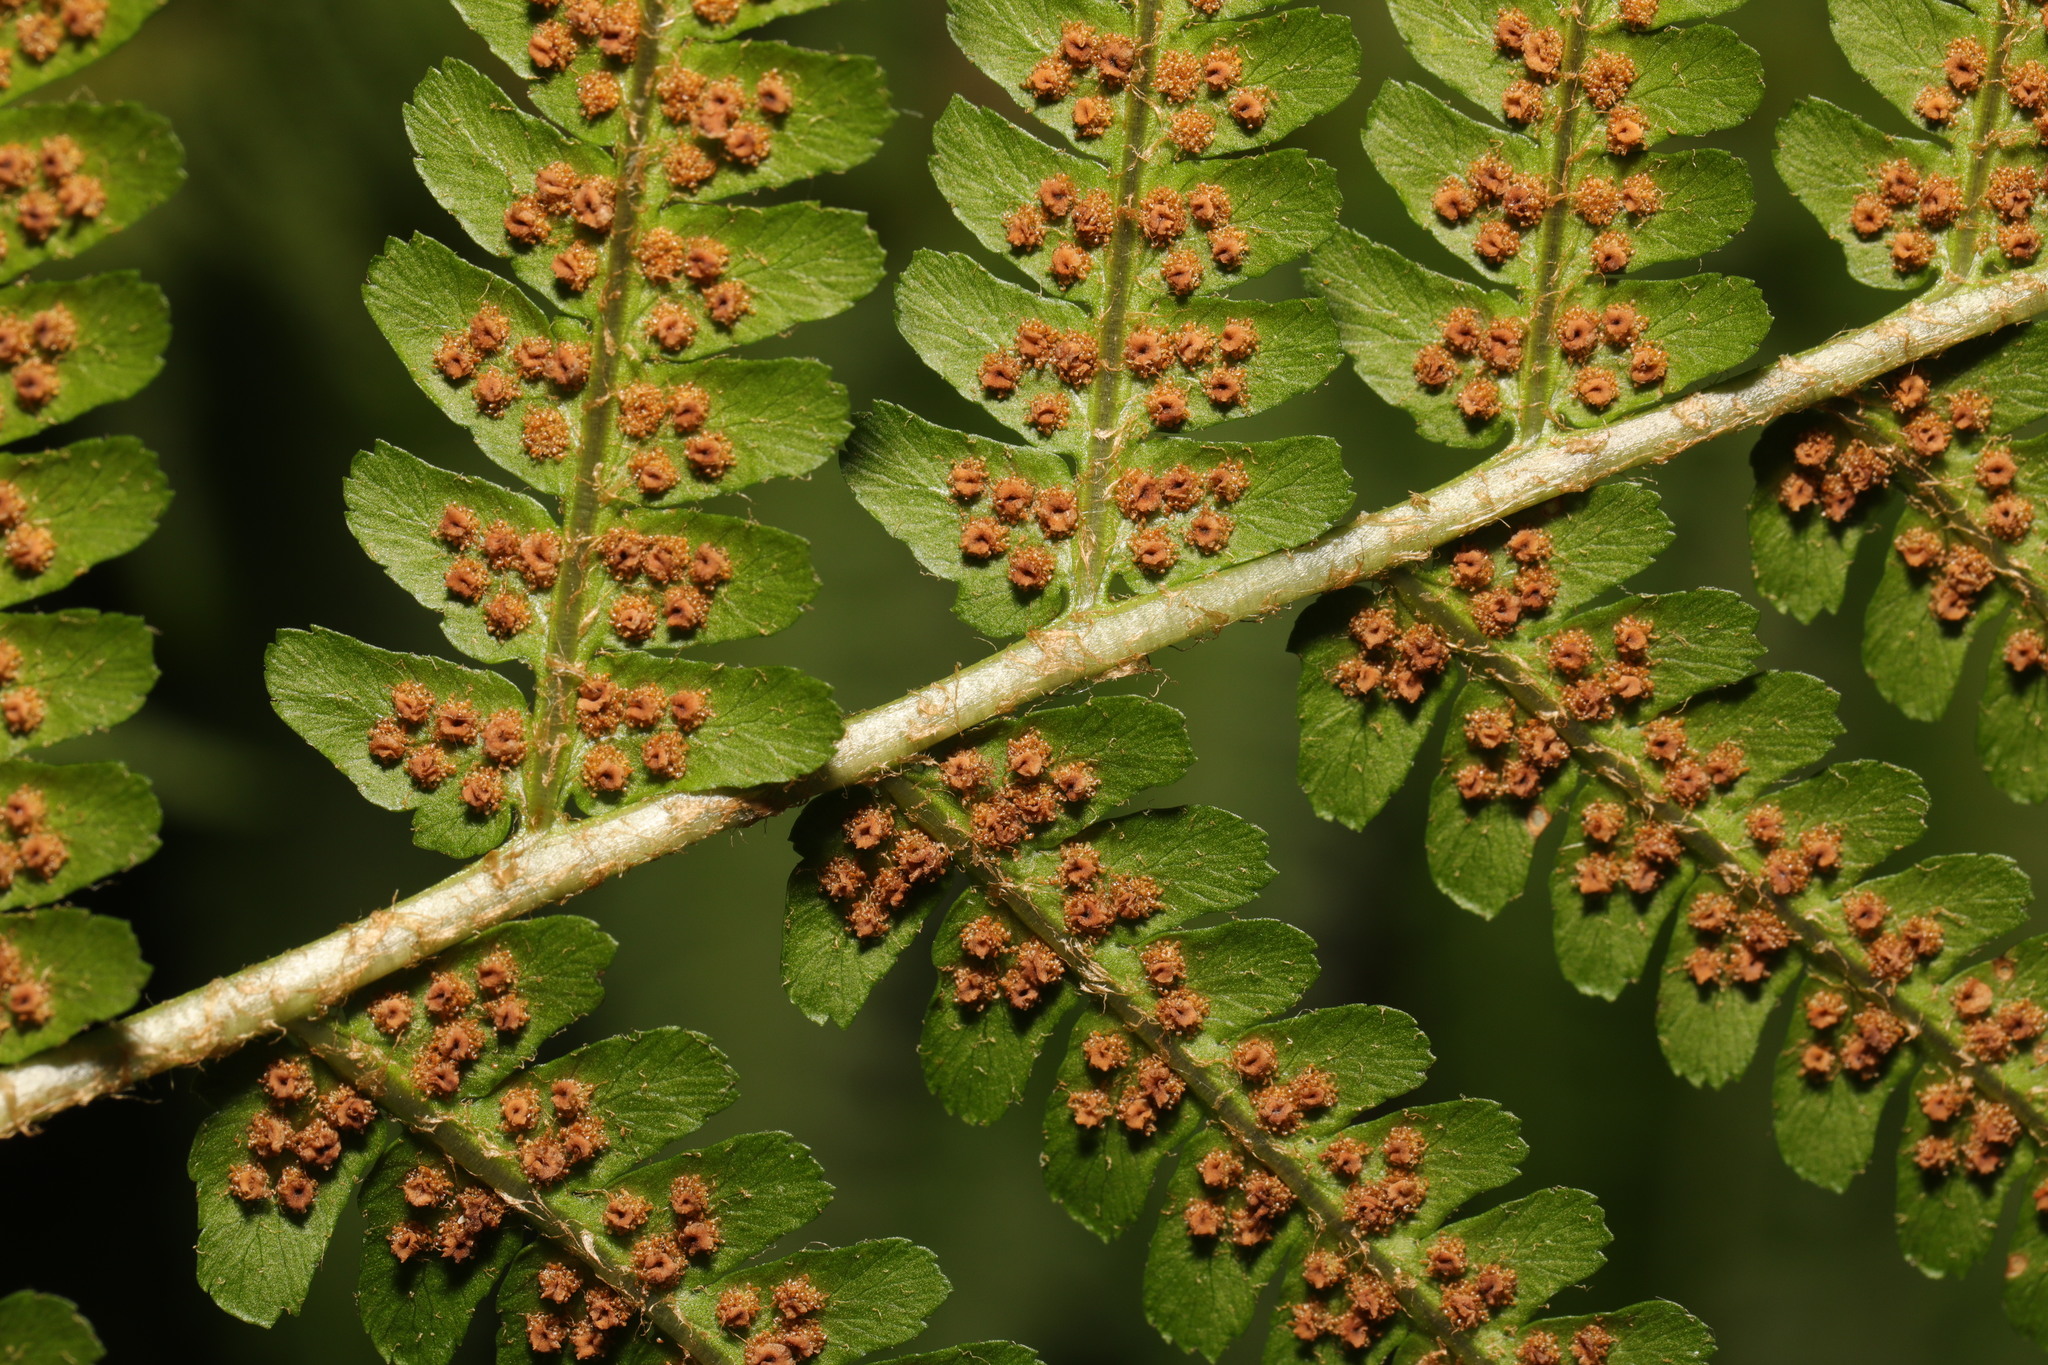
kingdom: Plantae
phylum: Tracheophyta
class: Polypodiopsida
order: Polypodiales
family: Dryopteridaceae
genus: Dryopteris
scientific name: Dryopteris filix-mas
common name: Male fern
